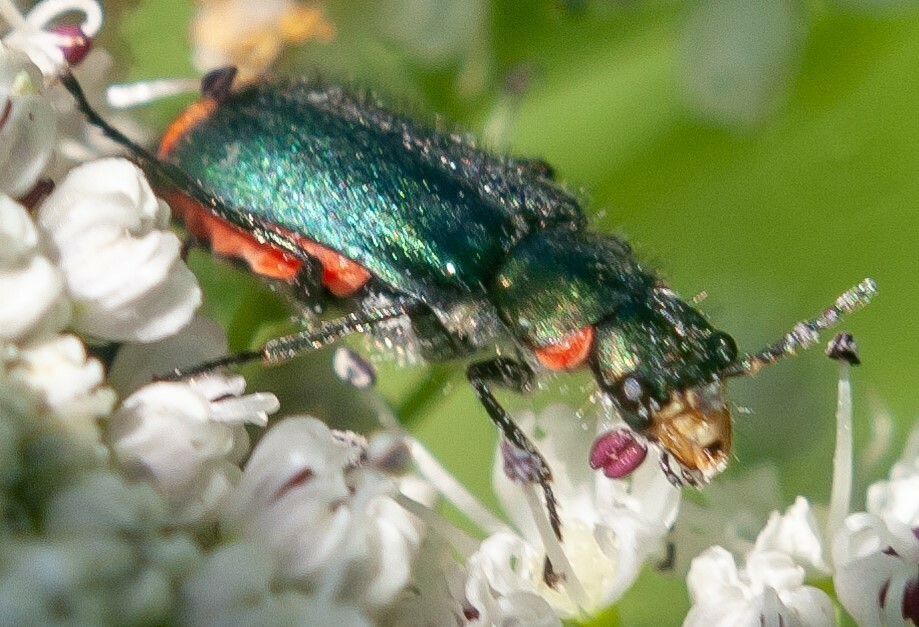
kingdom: Animalia
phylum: Arthropoda
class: Insecta
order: Coleoptera
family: Melyridae
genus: Malachius
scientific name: Malachius bipustulatus
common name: Malachite beetle
